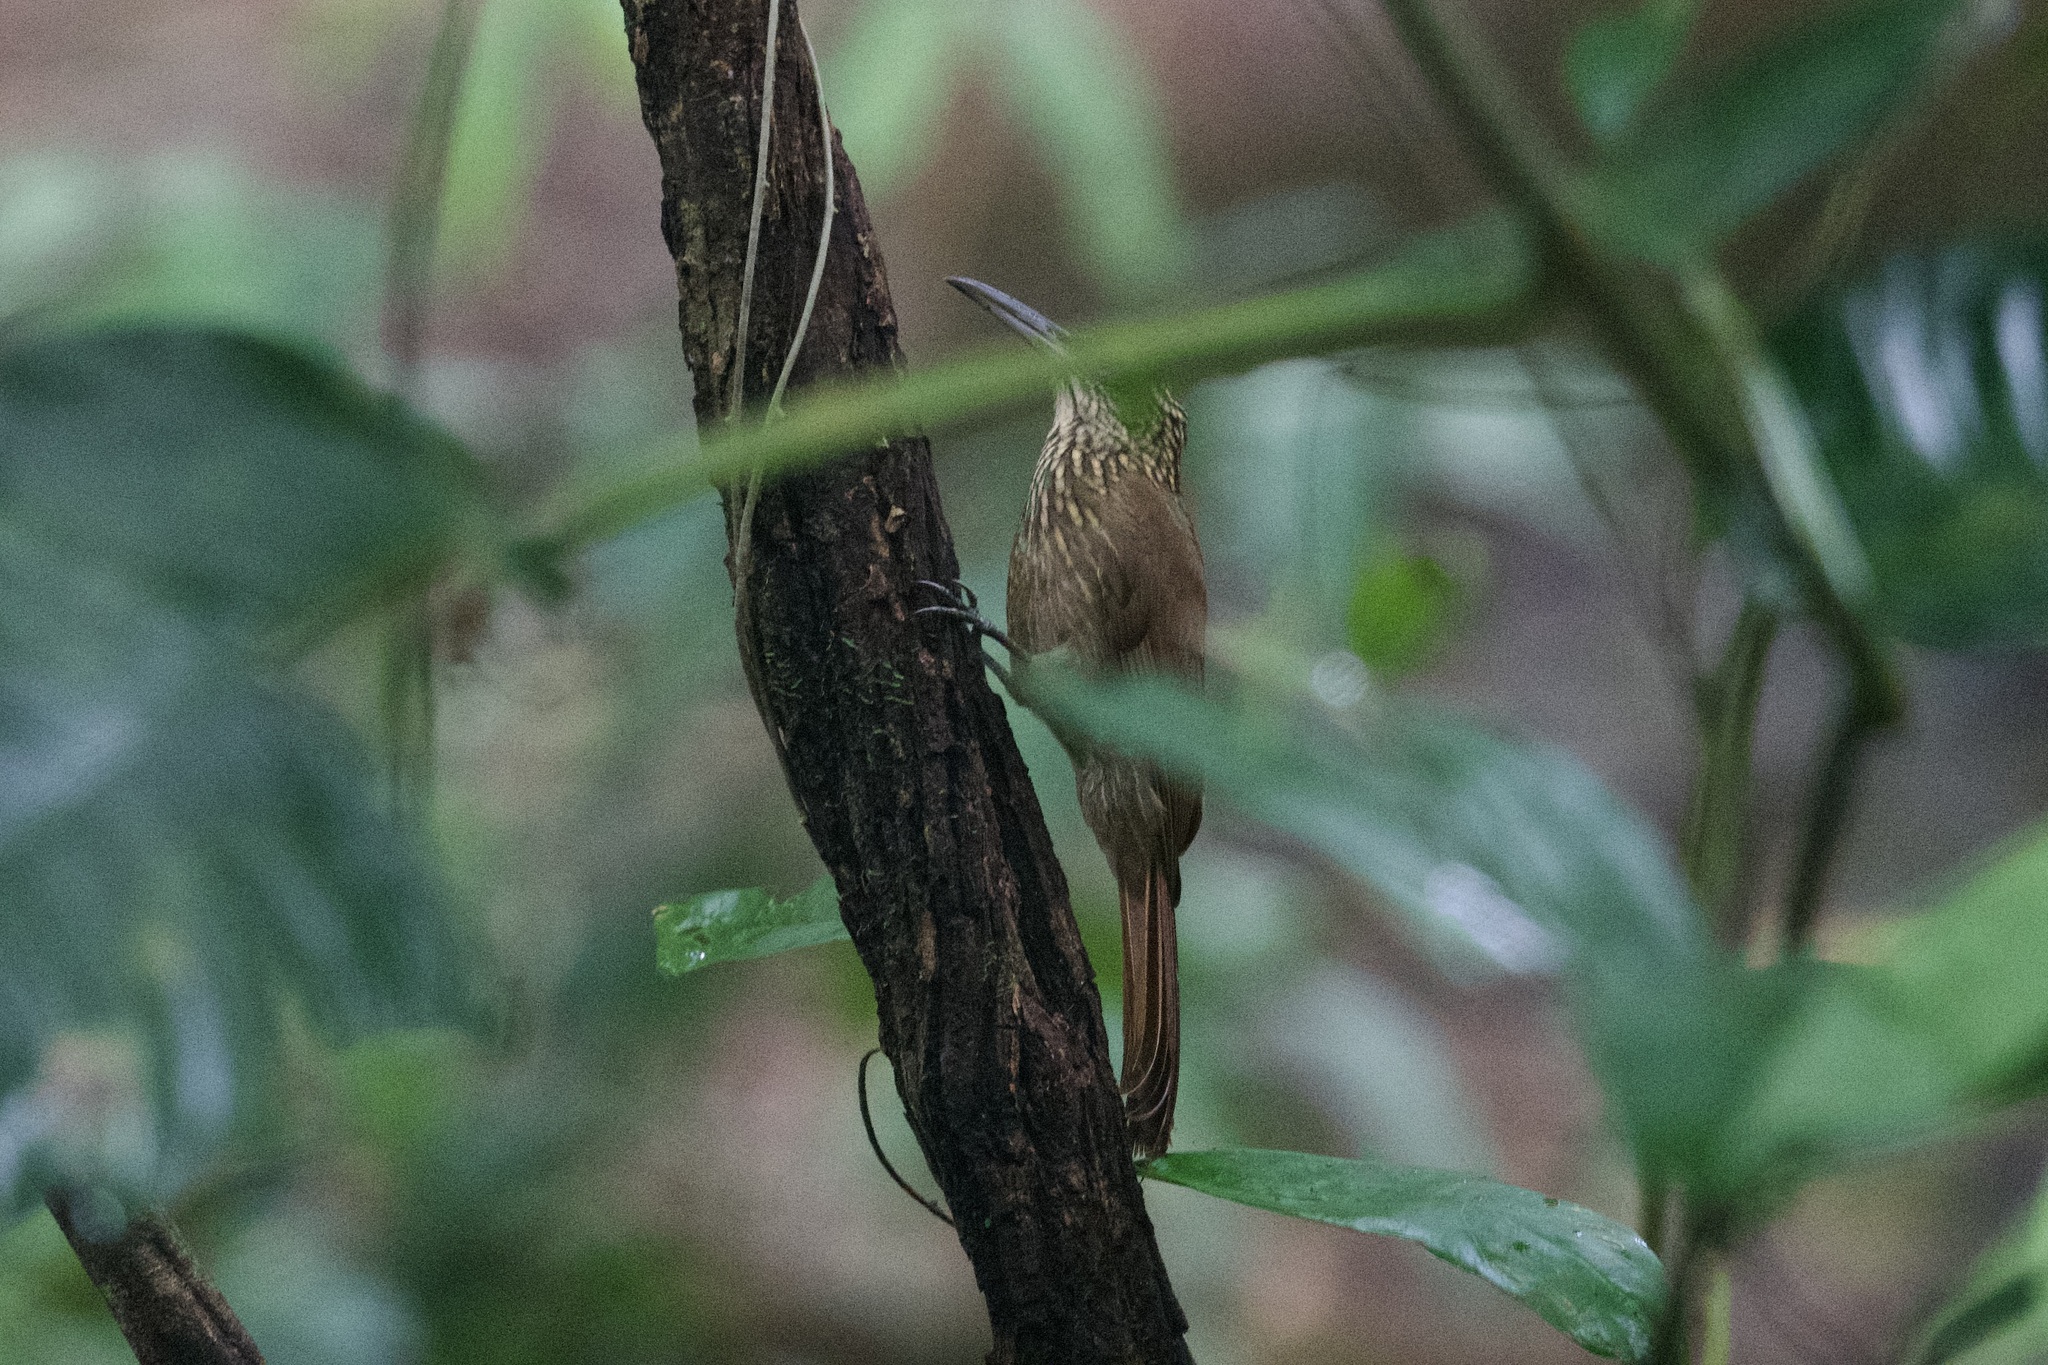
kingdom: Animalia
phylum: Chordata
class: Aves
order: Passeriformes
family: Furnariidae
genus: Xiphorhynchus
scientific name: Xiphorhynchus susurrans
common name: Cocoa woodcreeper
